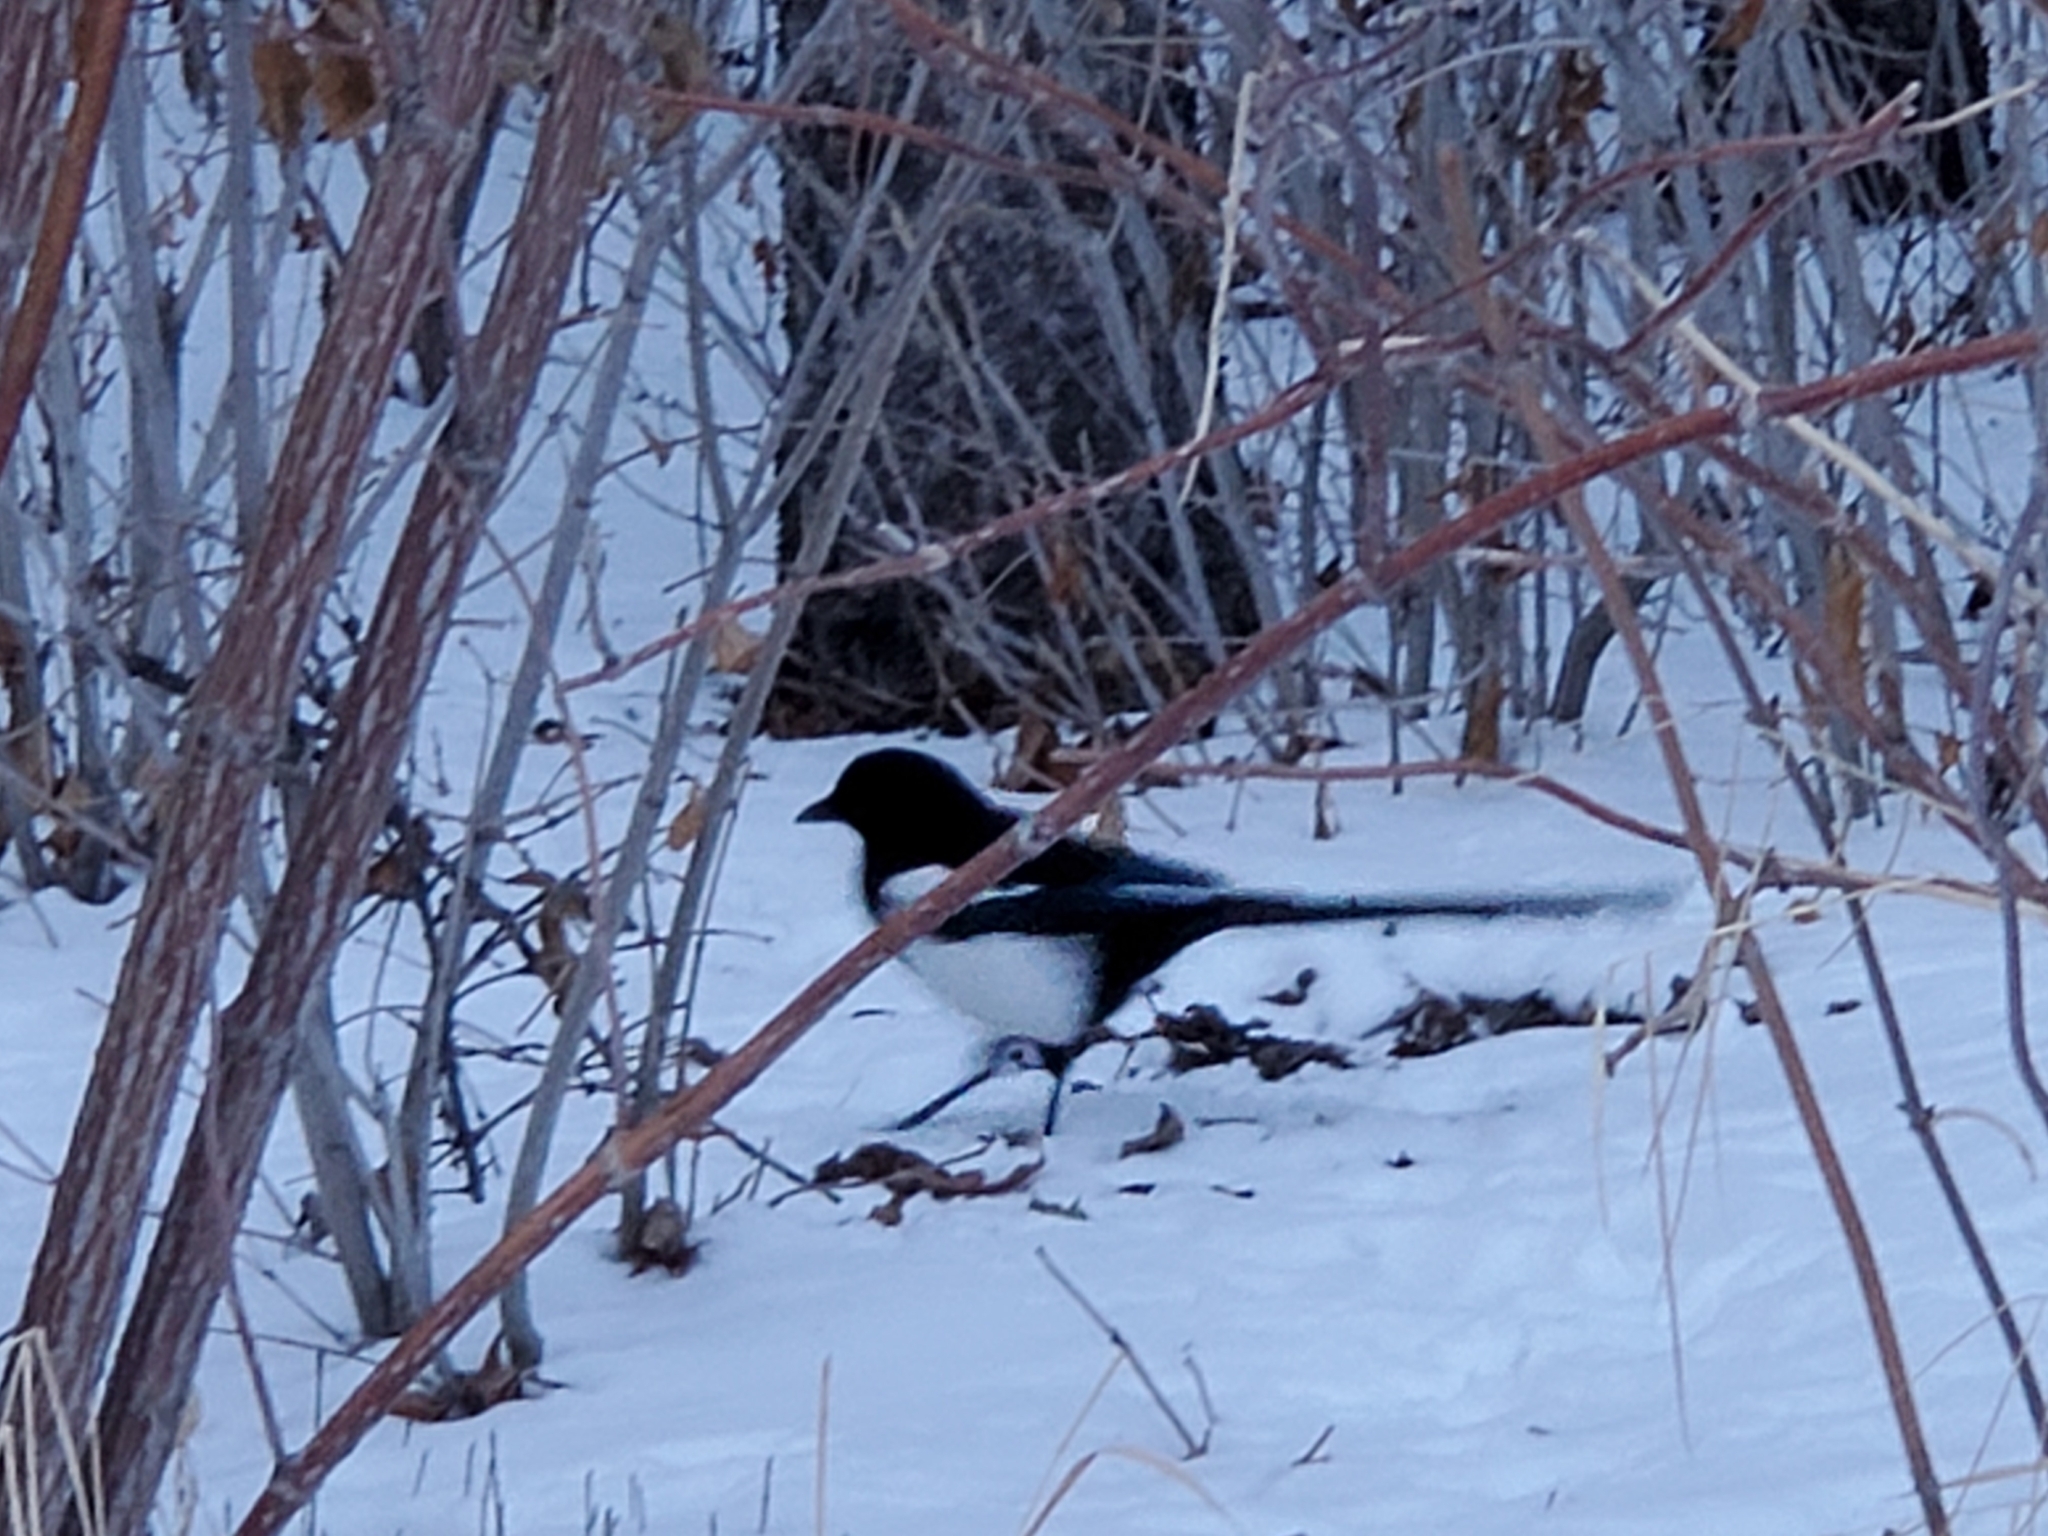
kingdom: Animalia
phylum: Chordata
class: Aves
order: Passeriformes
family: Corvidae
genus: Pica
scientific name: Pica hudsonia
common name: Black-billed magpie
